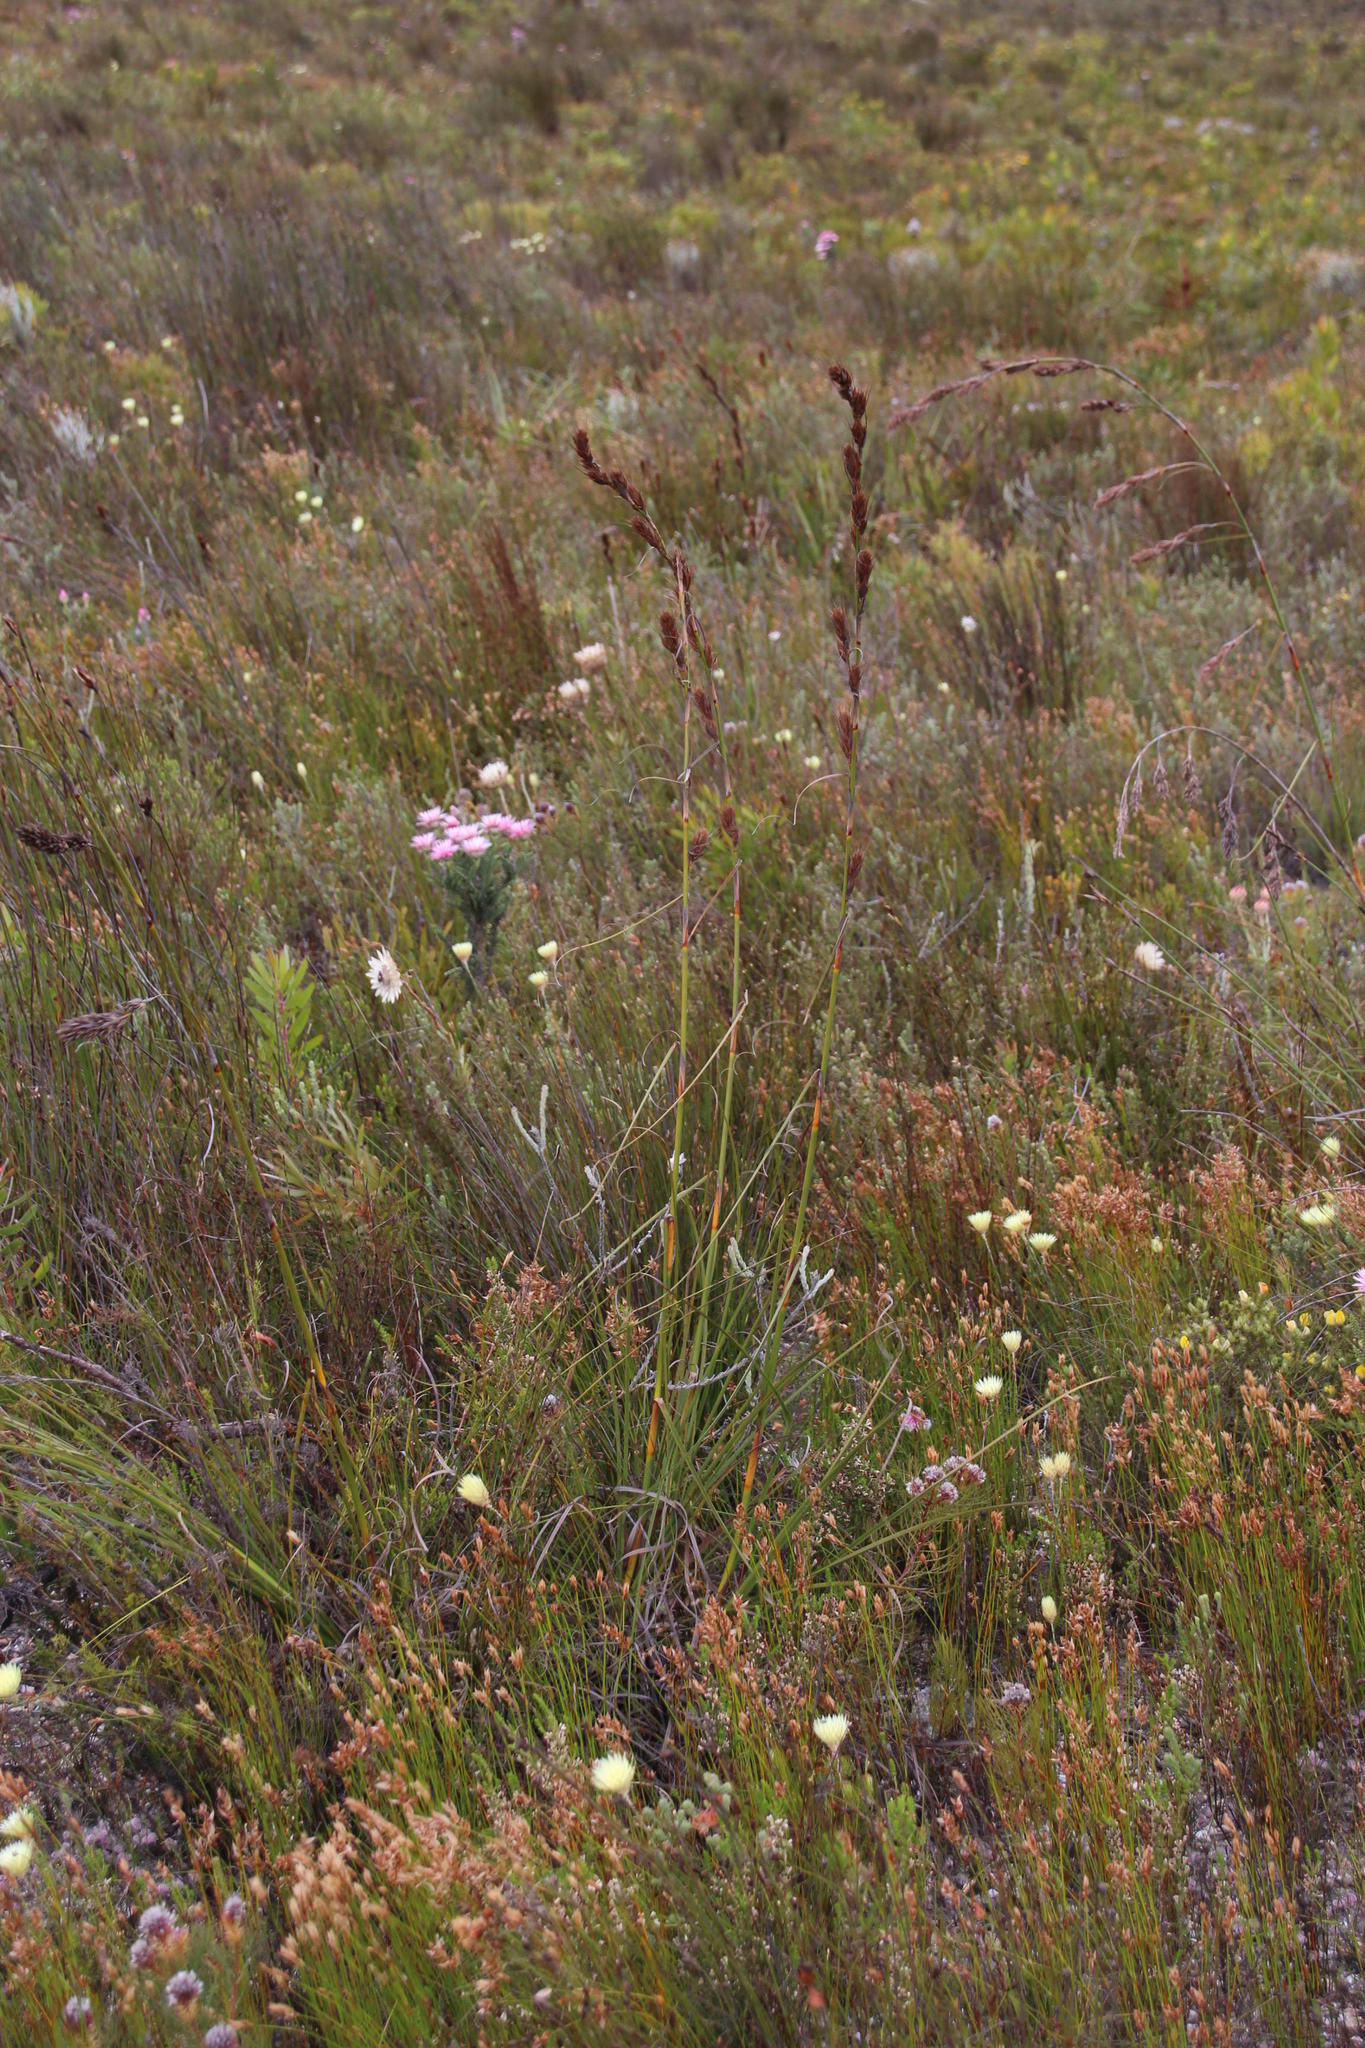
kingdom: Plantae
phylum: Tracheophyta
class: Liliopsida
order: Poales
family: Cyperaceae
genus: Tetraria
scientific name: Tetraria bromoides
